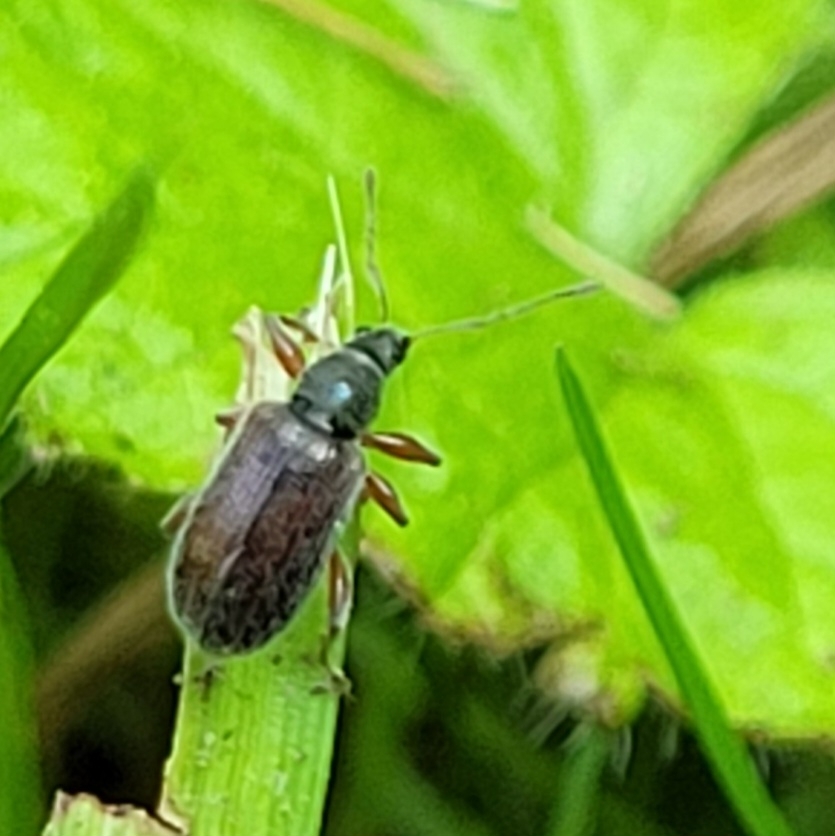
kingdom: Animalia
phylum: Arthropoda
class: Insecta
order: Coleoptera
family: Curculionidae
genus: Phyllobius
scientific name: Phyllobius oblongus
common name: Brown leaf weevil
